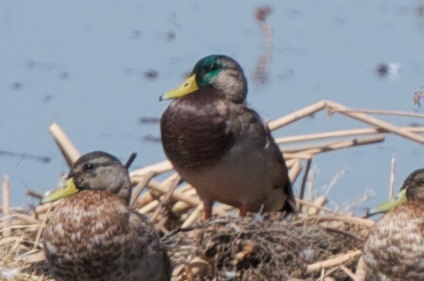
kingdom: Animalia
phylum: Chordata
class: Aves
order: Anseriformes
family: Anatidae
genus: Anas
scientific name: Anas platyrhynchos
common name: Mallard
